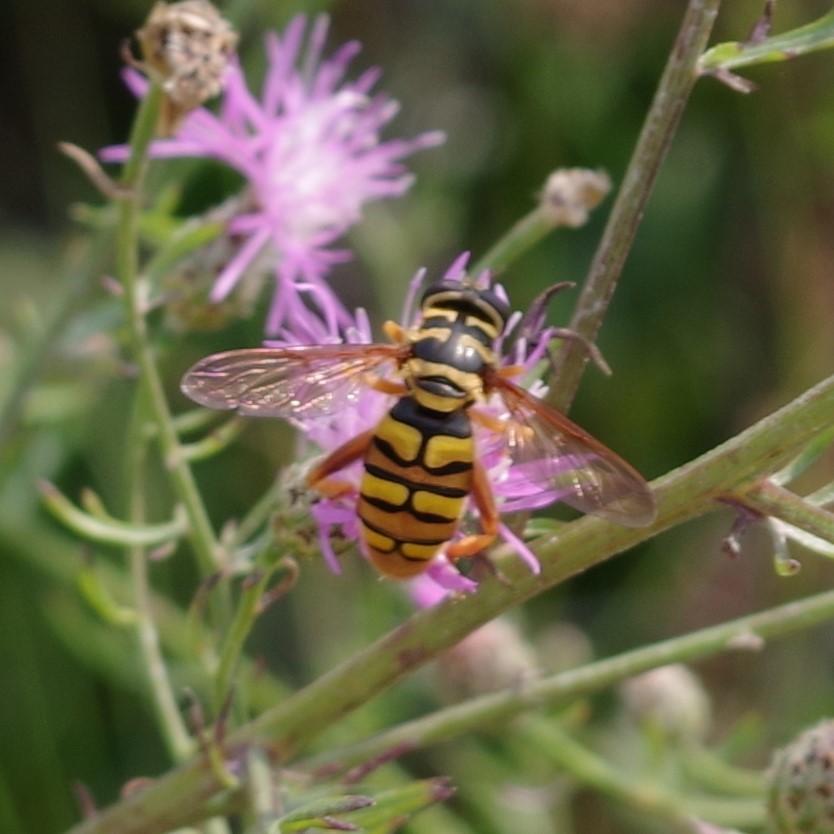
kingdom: Animalia
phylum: Arthropoda
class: Insecta
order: Diptera
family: Syrphidae
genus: Milesia
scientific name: Milesia virginiensis
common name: Virginia giant
